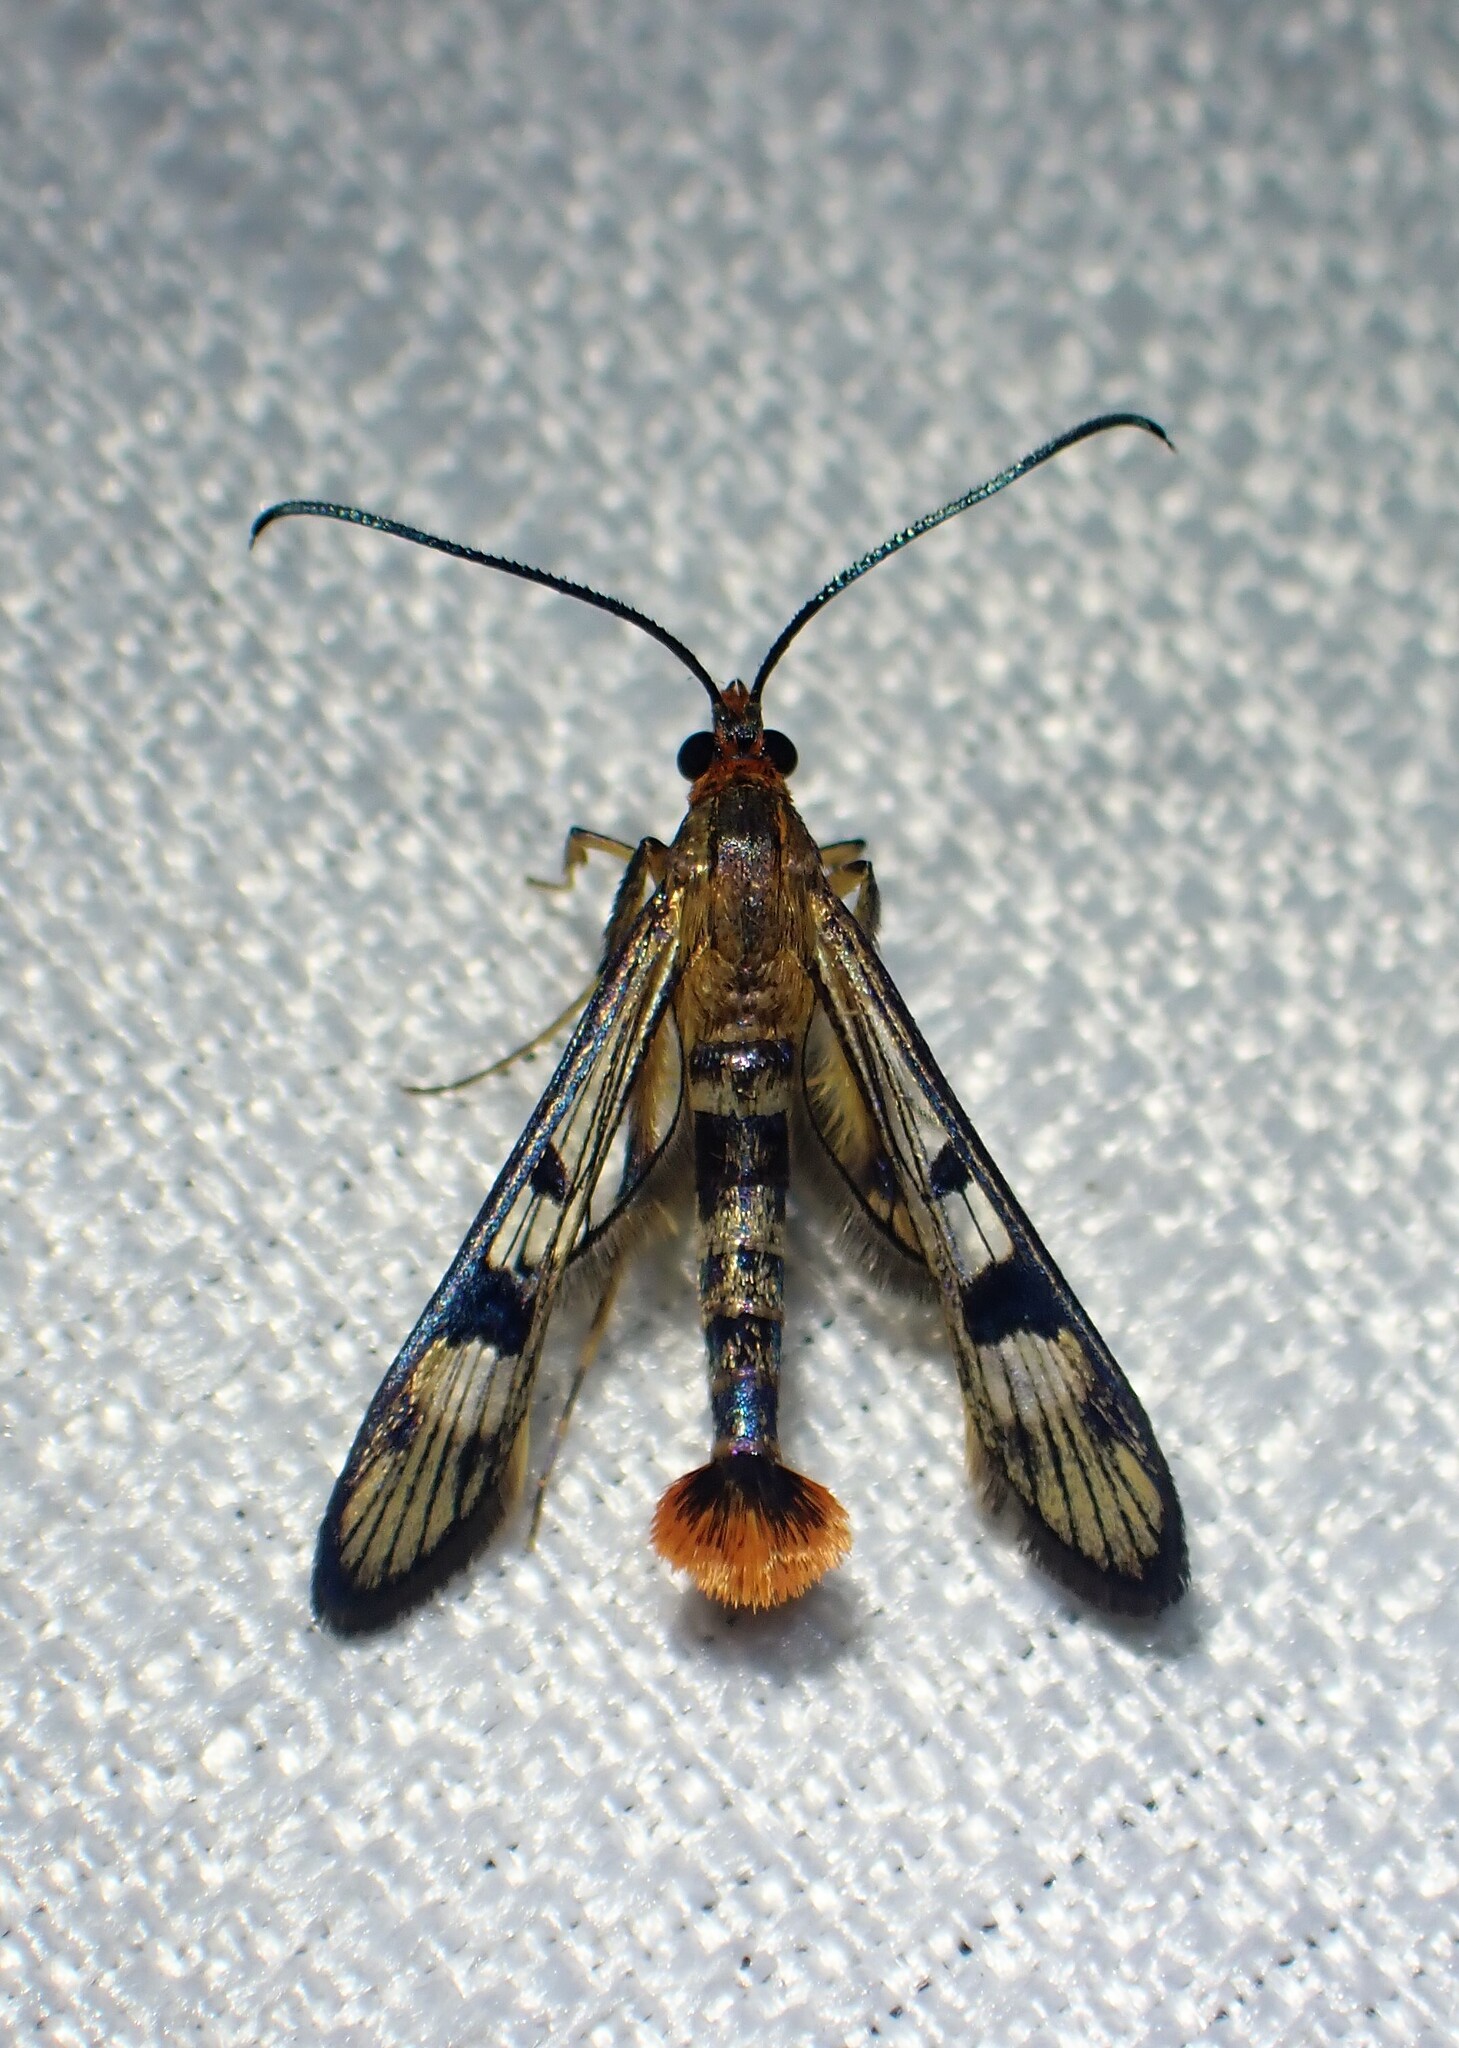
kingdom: Animalia
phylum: Arthropoda
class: Insecta
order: Lepidoptera
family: Sesiidae
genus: Synanthedon
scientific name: Synanthedon acerni
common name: Maple callus borer moth
